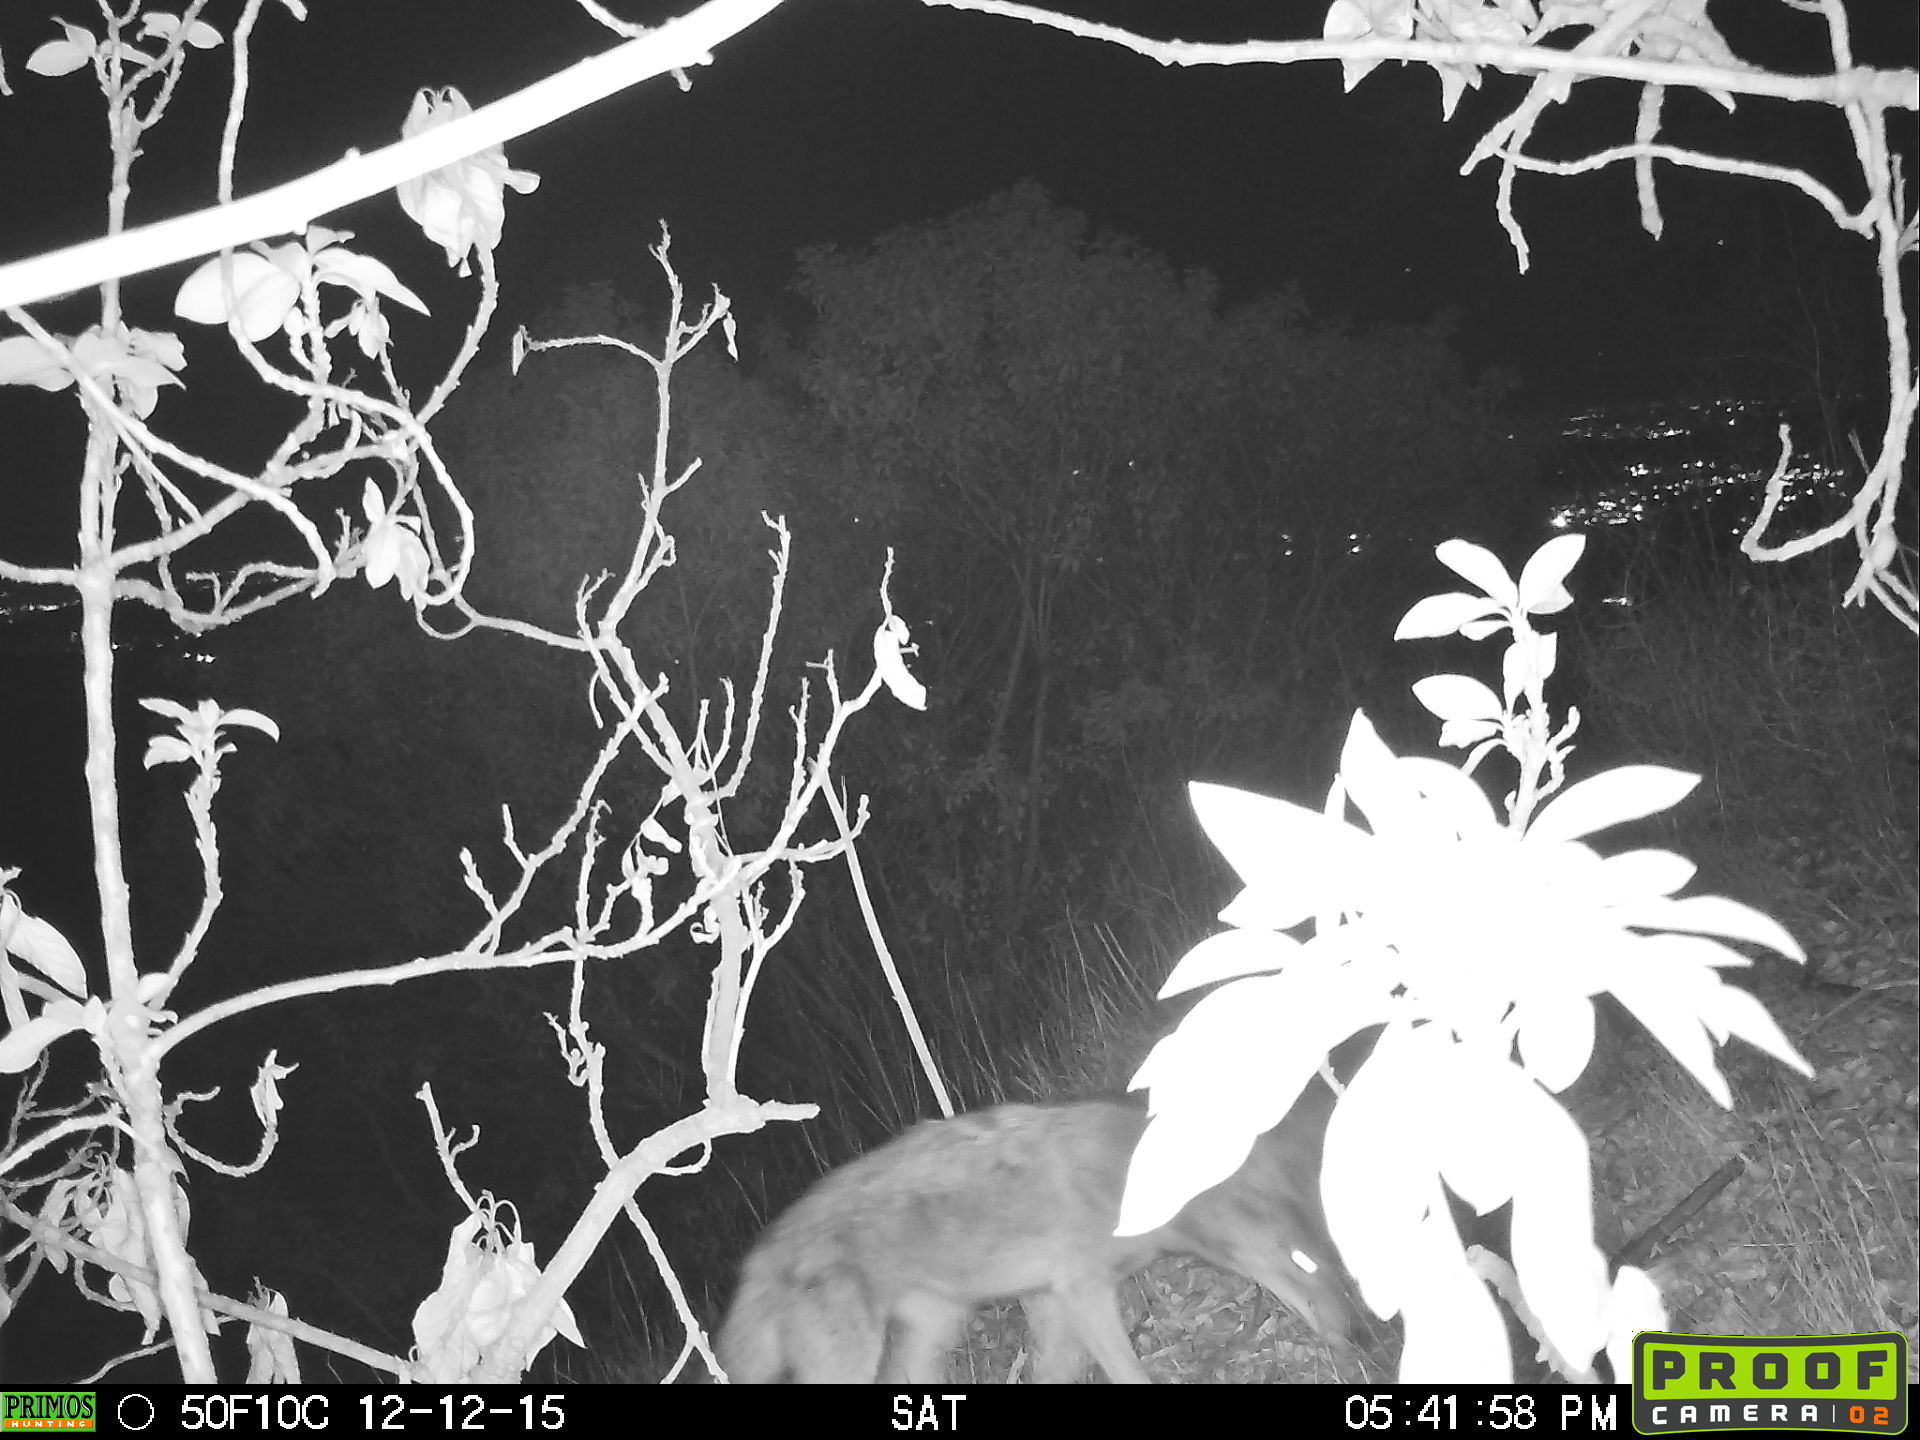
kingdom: Animalia
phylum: Chordata
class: Mammalia
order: Carnivora
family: Canidae
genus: Canis
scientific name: Canis latrans
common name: Coyote
